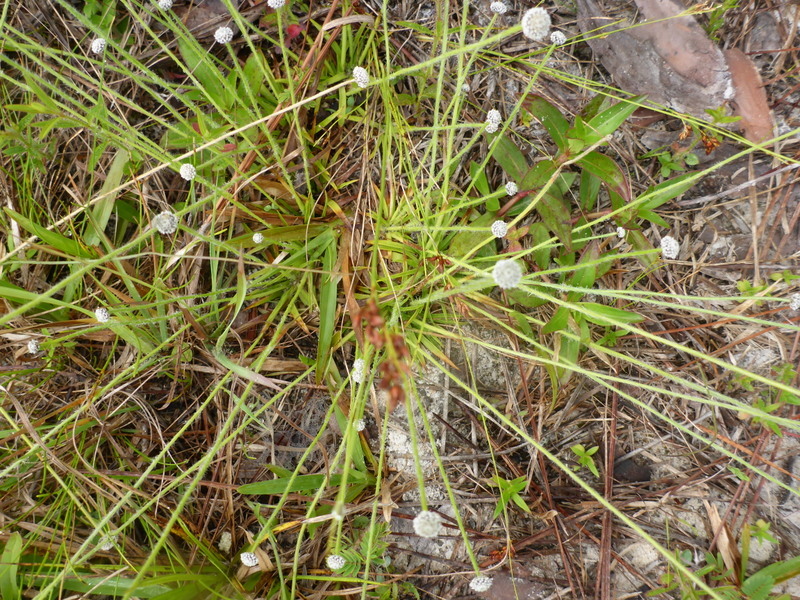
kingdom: Plantae
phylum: Tracheophyta
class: Liliopsida
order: Poales
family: Eriocaulaceae
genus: Paepalanthus
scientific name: Paepalanthus anceps
